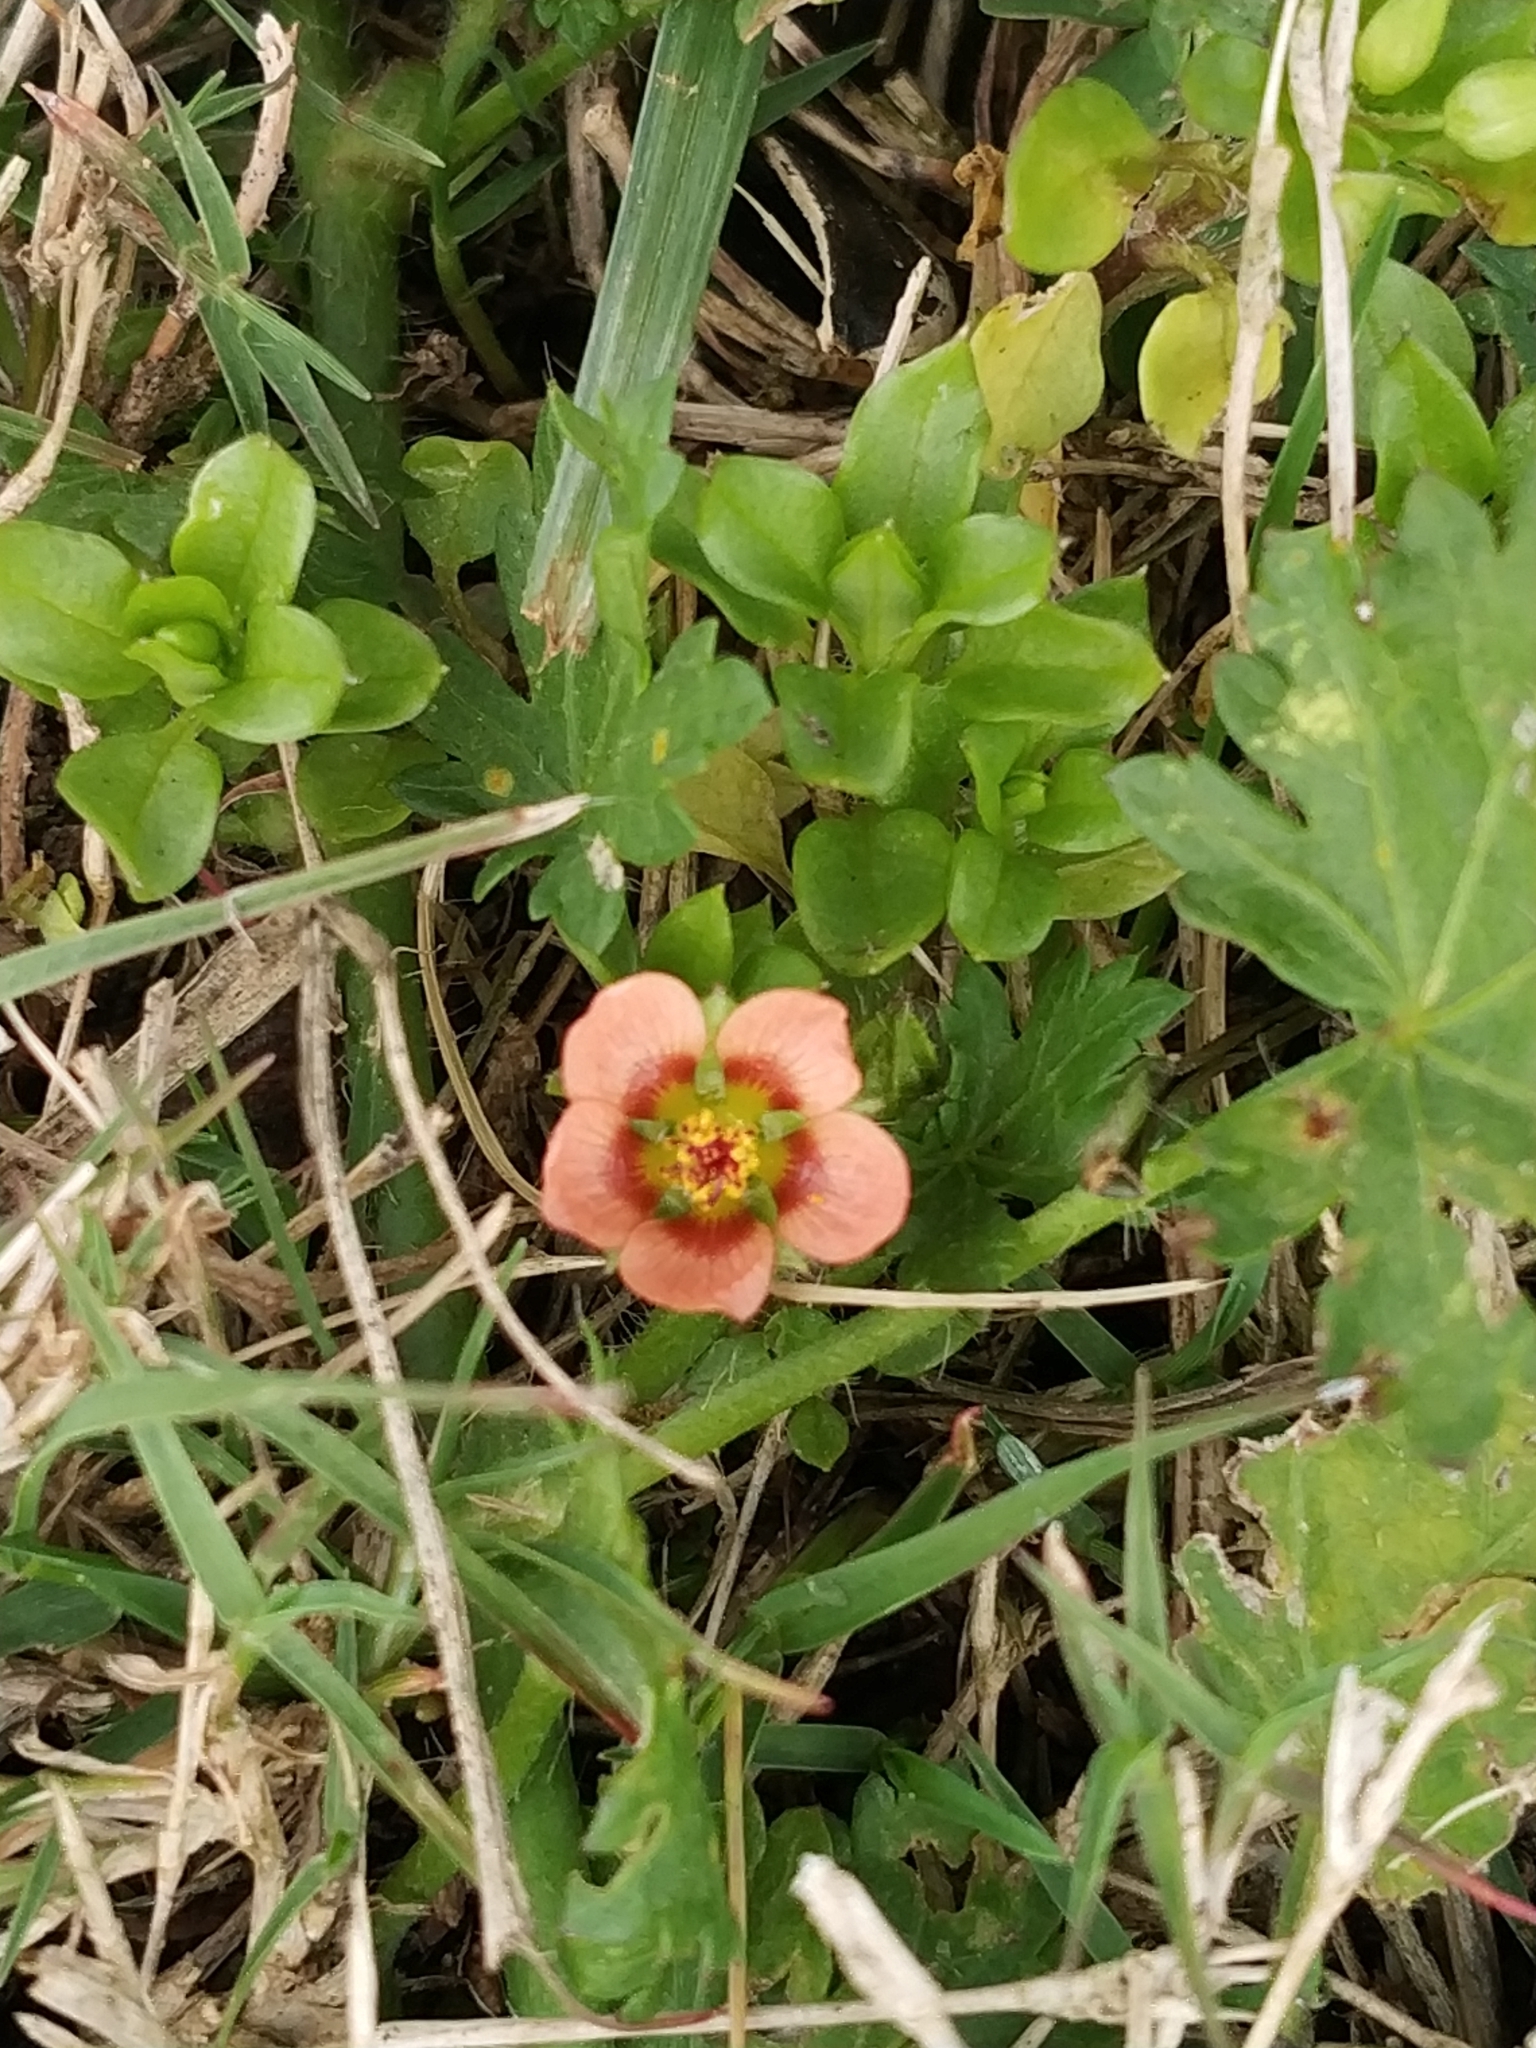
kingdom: Plantae
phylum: Tracheophyta
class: Magnoliopsida
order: Malvales
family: Malvaceae
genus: Modiola
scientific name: Modiola caroliniana
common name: Carolina bristlemallow
